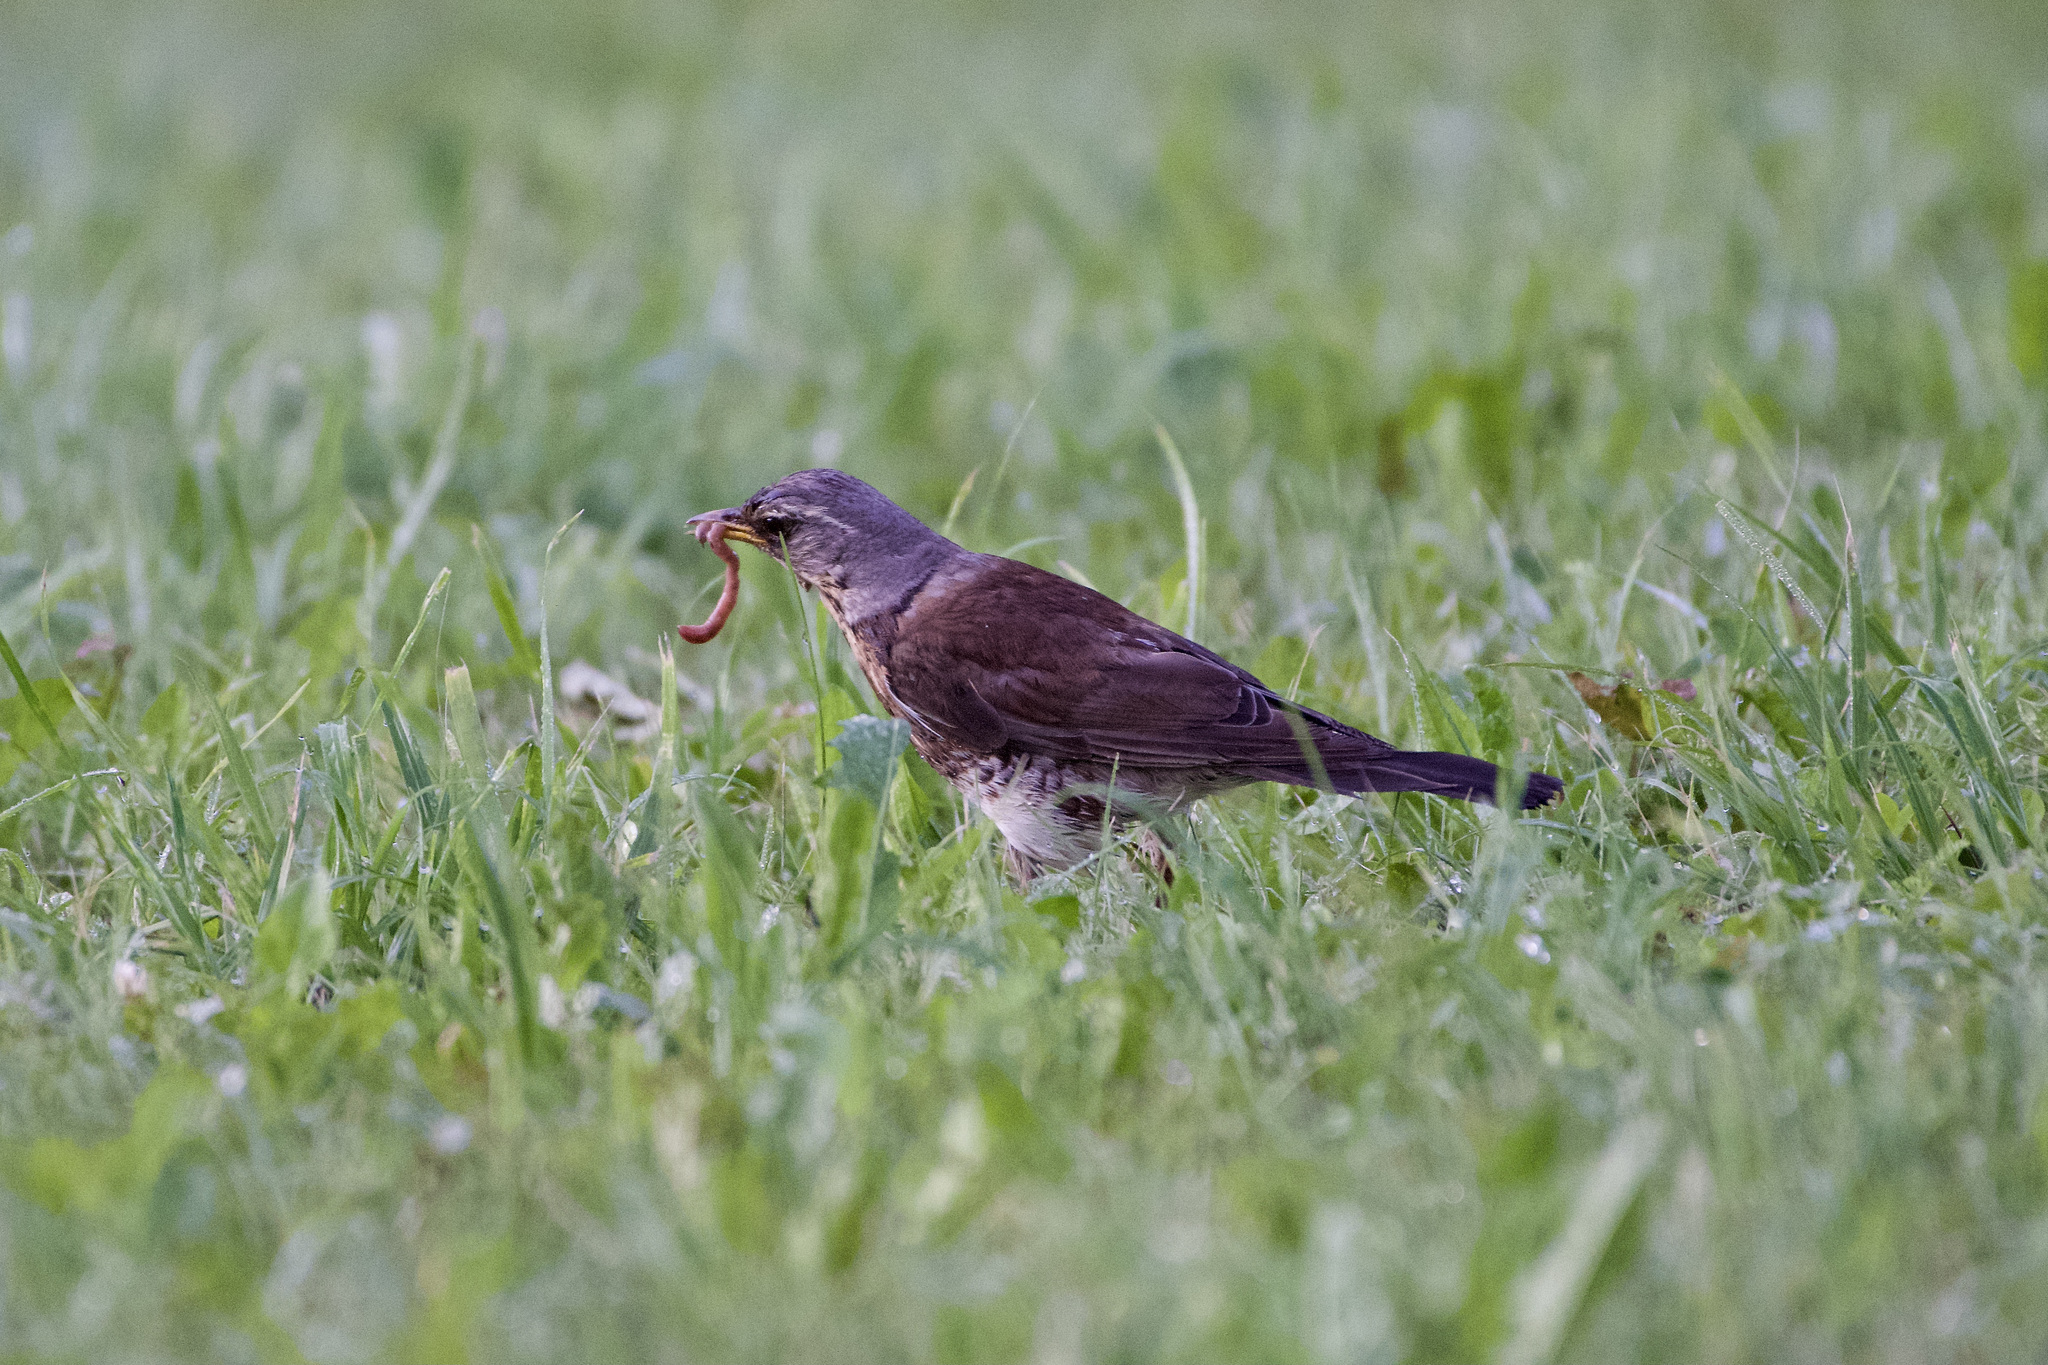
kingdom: Animalia
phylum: Chordata
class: Aves
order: Passeriformes
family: Turdidae
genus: Turdus
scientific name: Turdus pilaris
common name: Fieldfare
